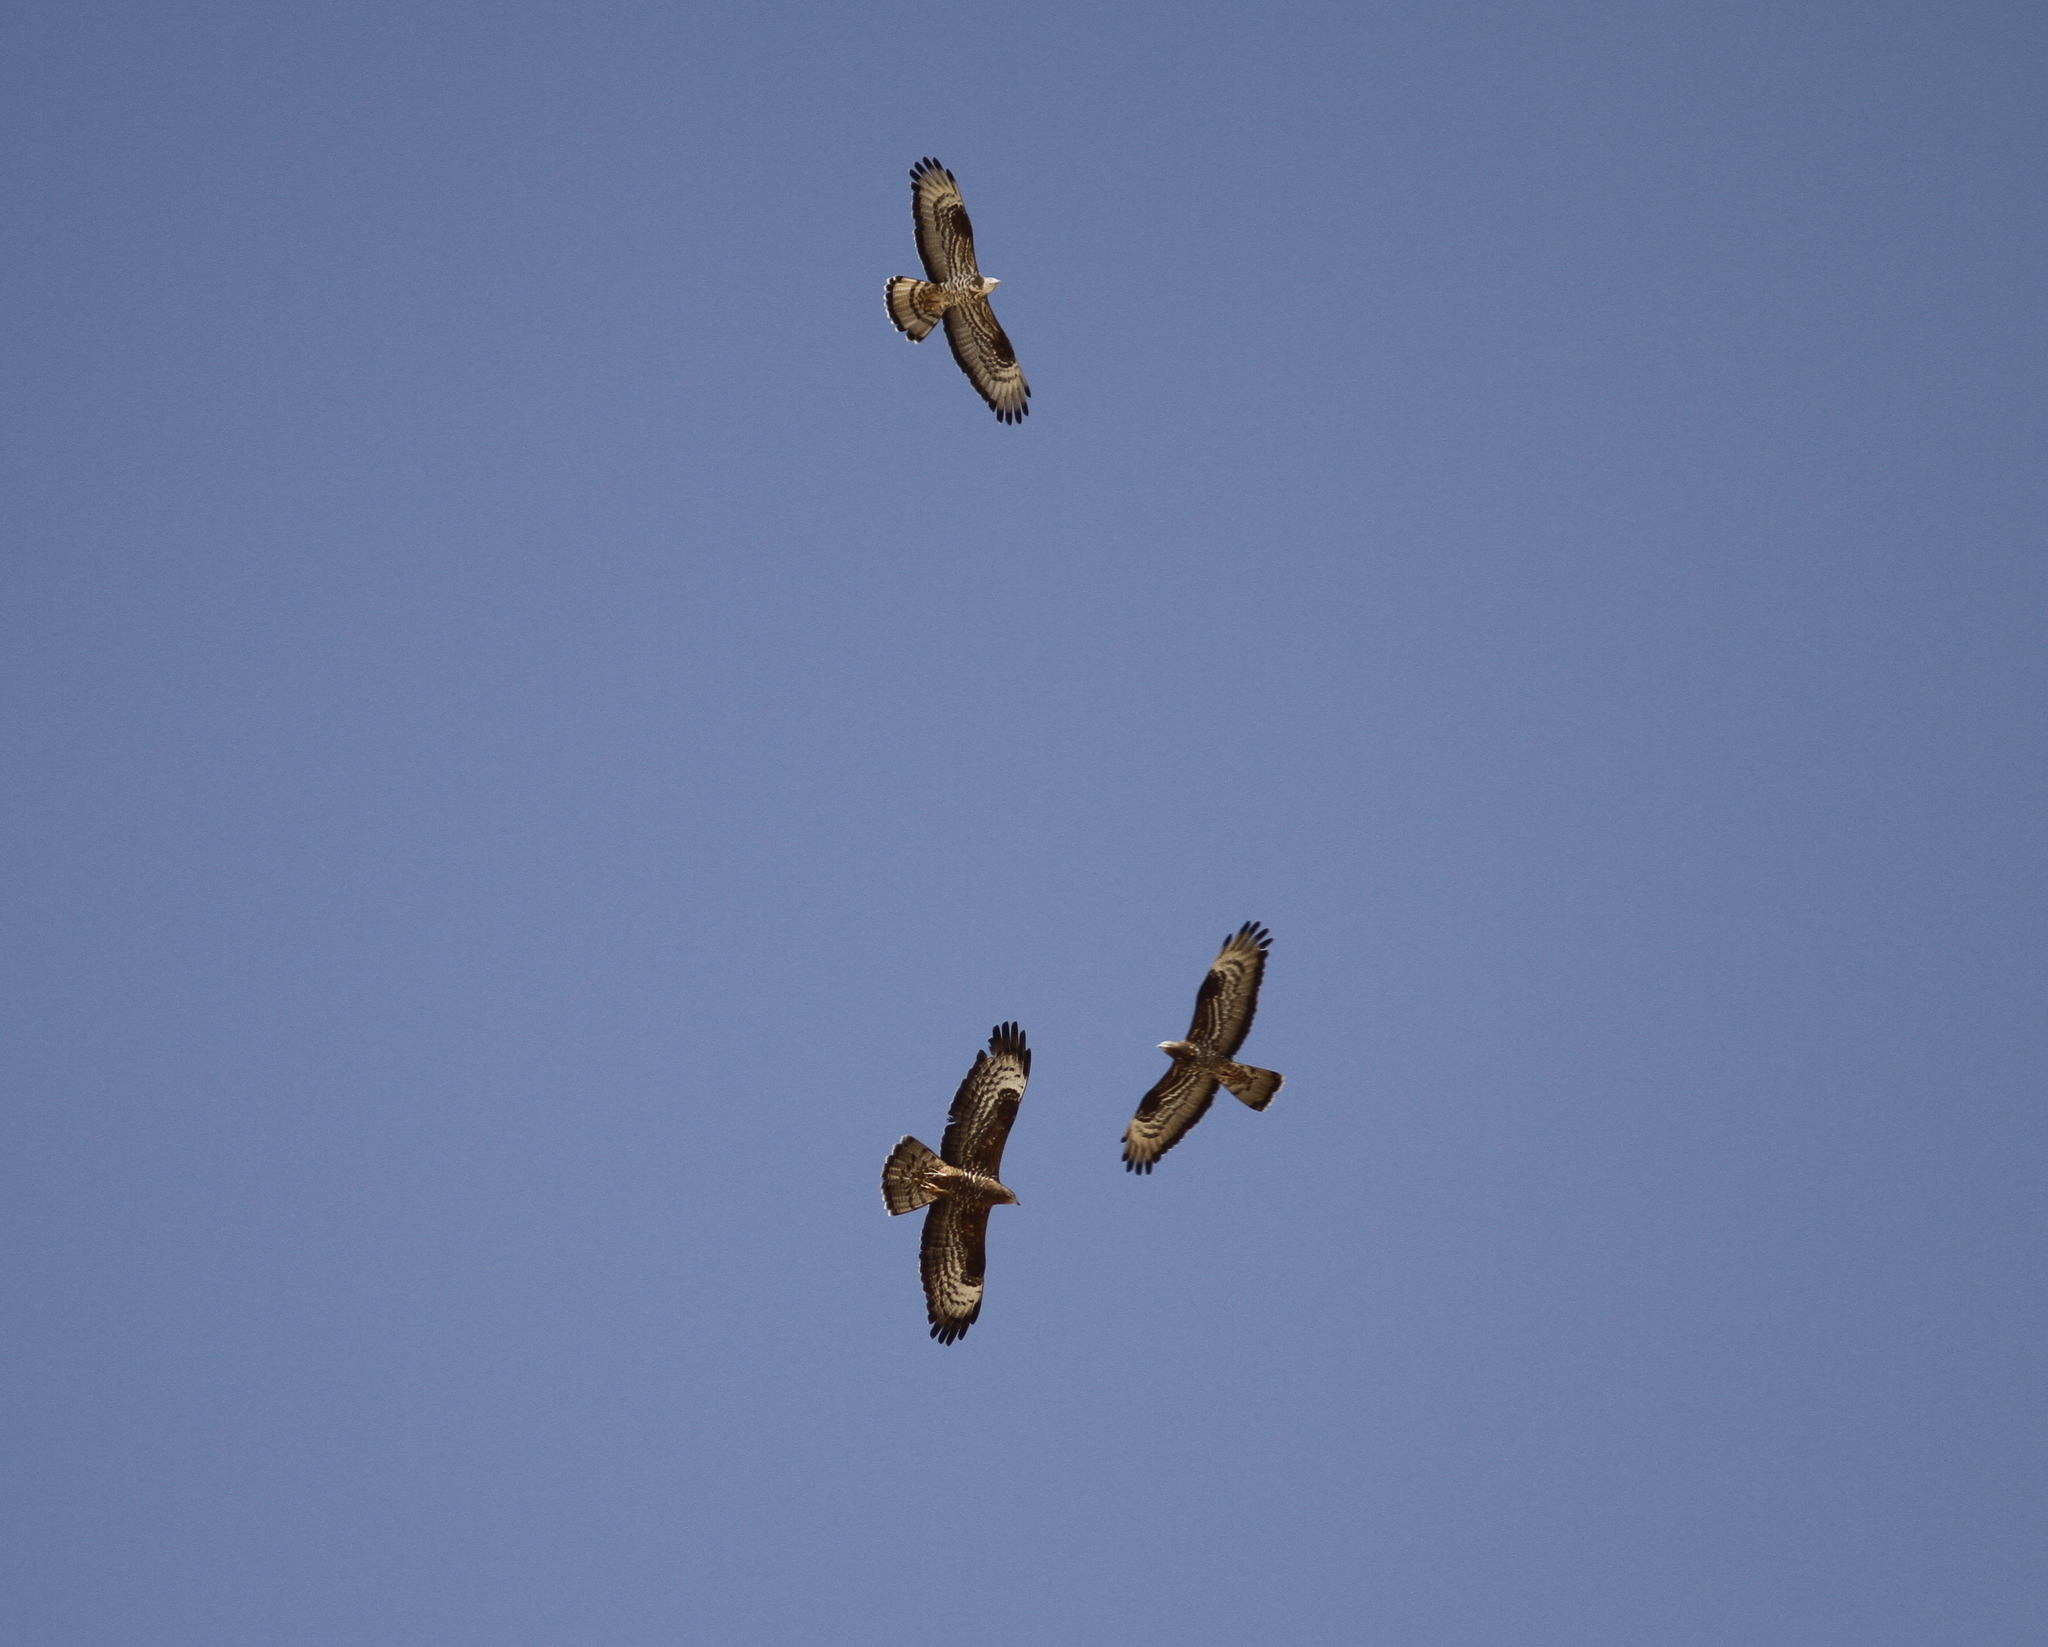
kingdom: Animalia
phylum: Chordata
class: Aves
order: Accipitriformes
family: Accipitridae
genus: Pernis
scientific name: Pernis apivorus
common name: European honey buzzard
